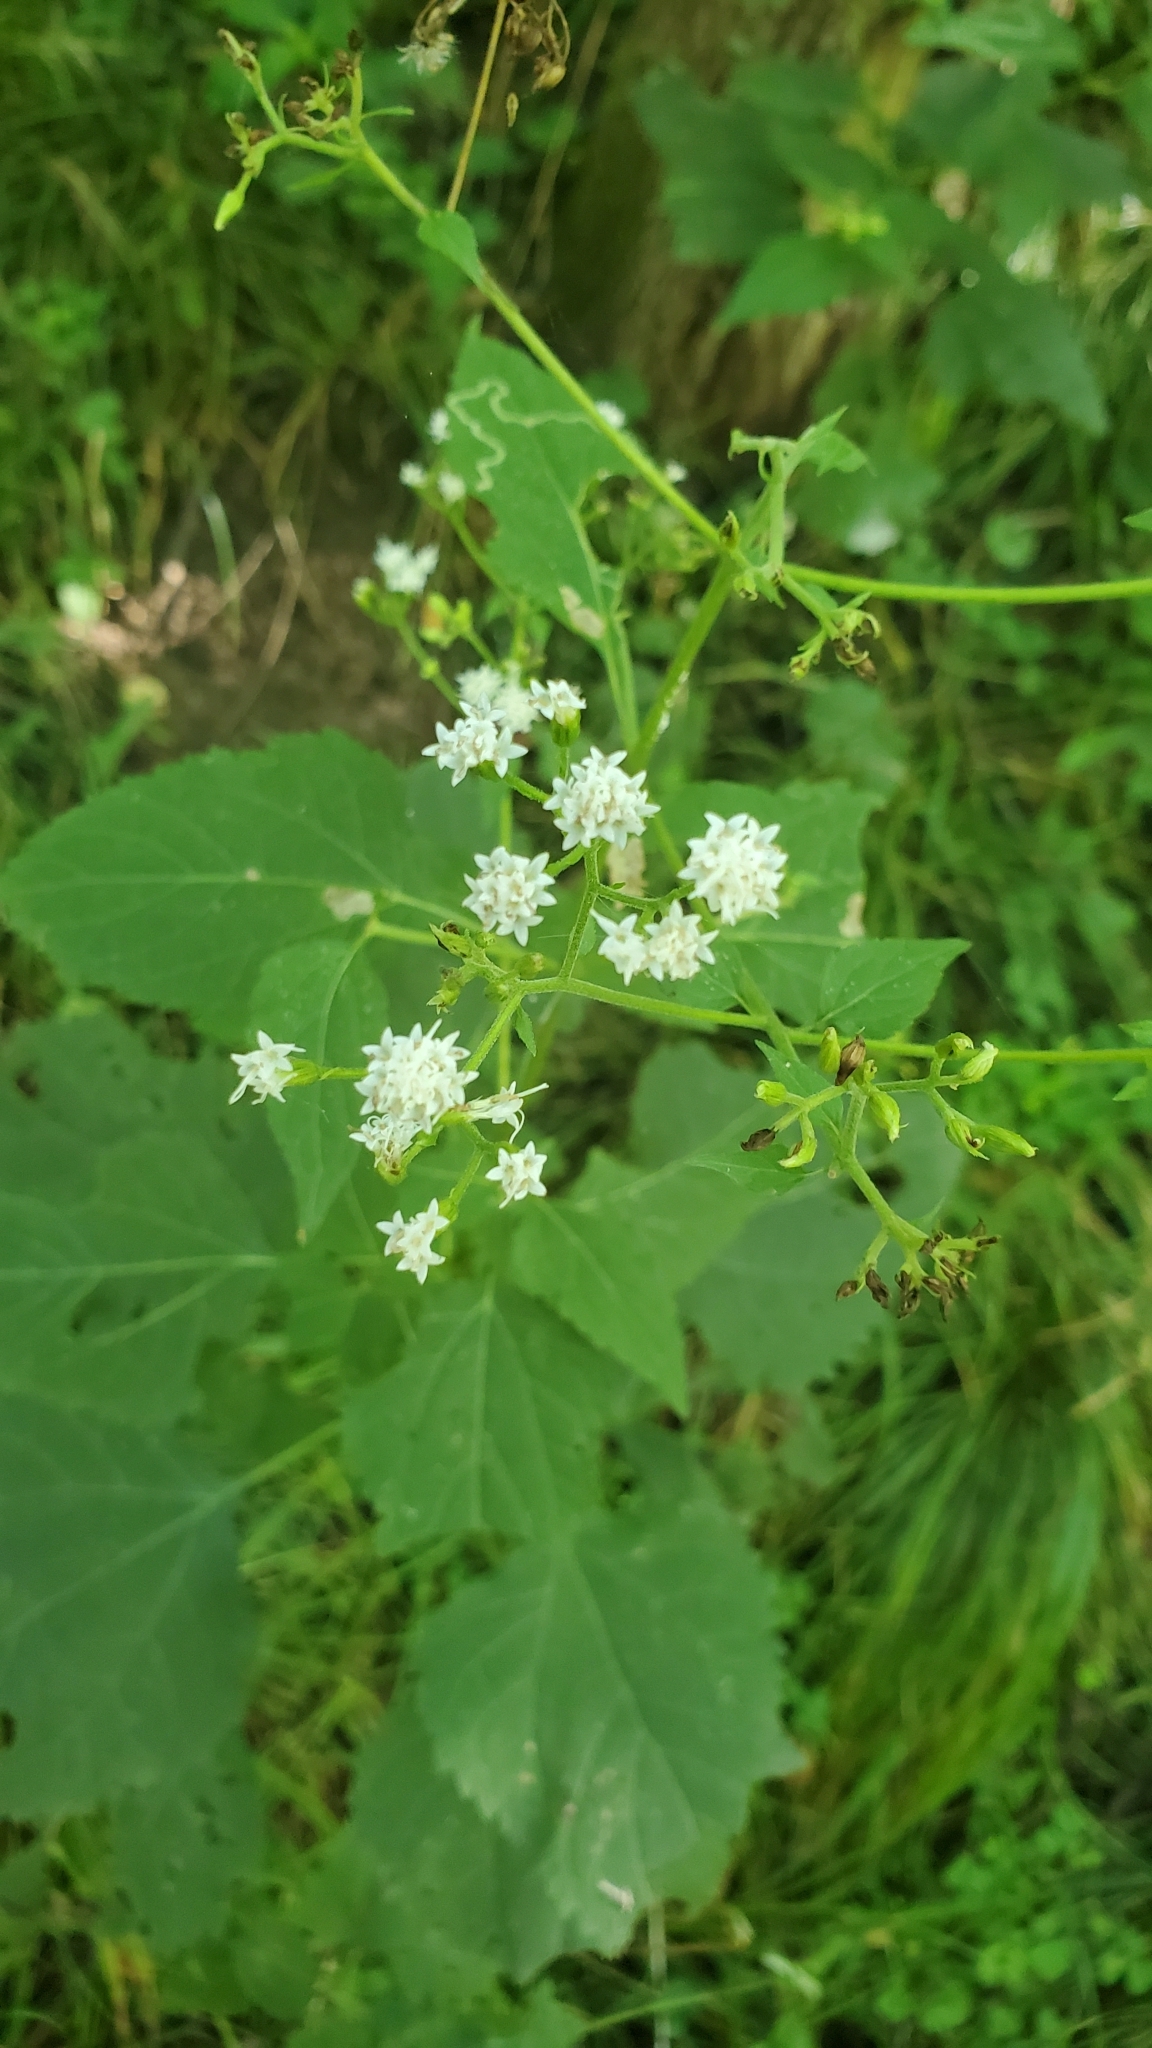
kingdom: Plantae
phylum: Tracheophyta
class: Magnoliopsida
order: Asterales
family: Asteraceae
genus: Ageratina
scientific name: Ageratina altissima
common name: White snakeroot
